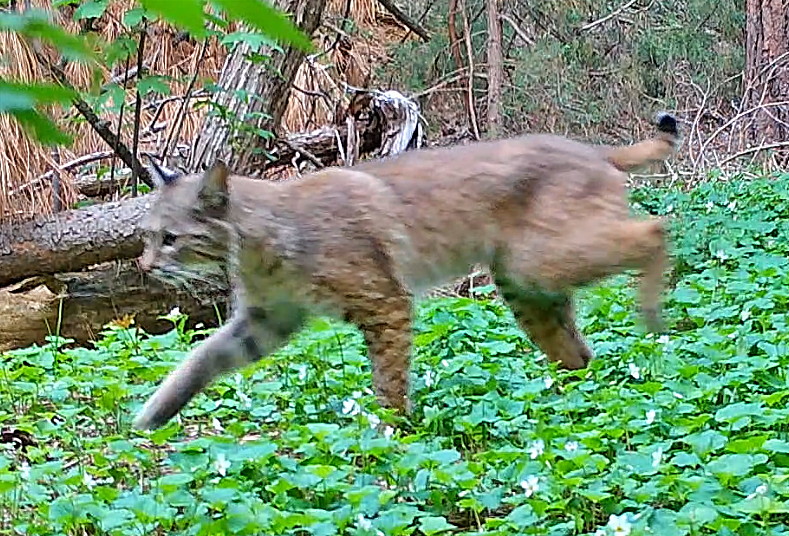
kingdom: Animalia
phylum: Chordata
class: Mammalia
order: Carnivora
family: Felidae
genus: Lynx
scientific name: Lynx rufus
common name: Bobcat
